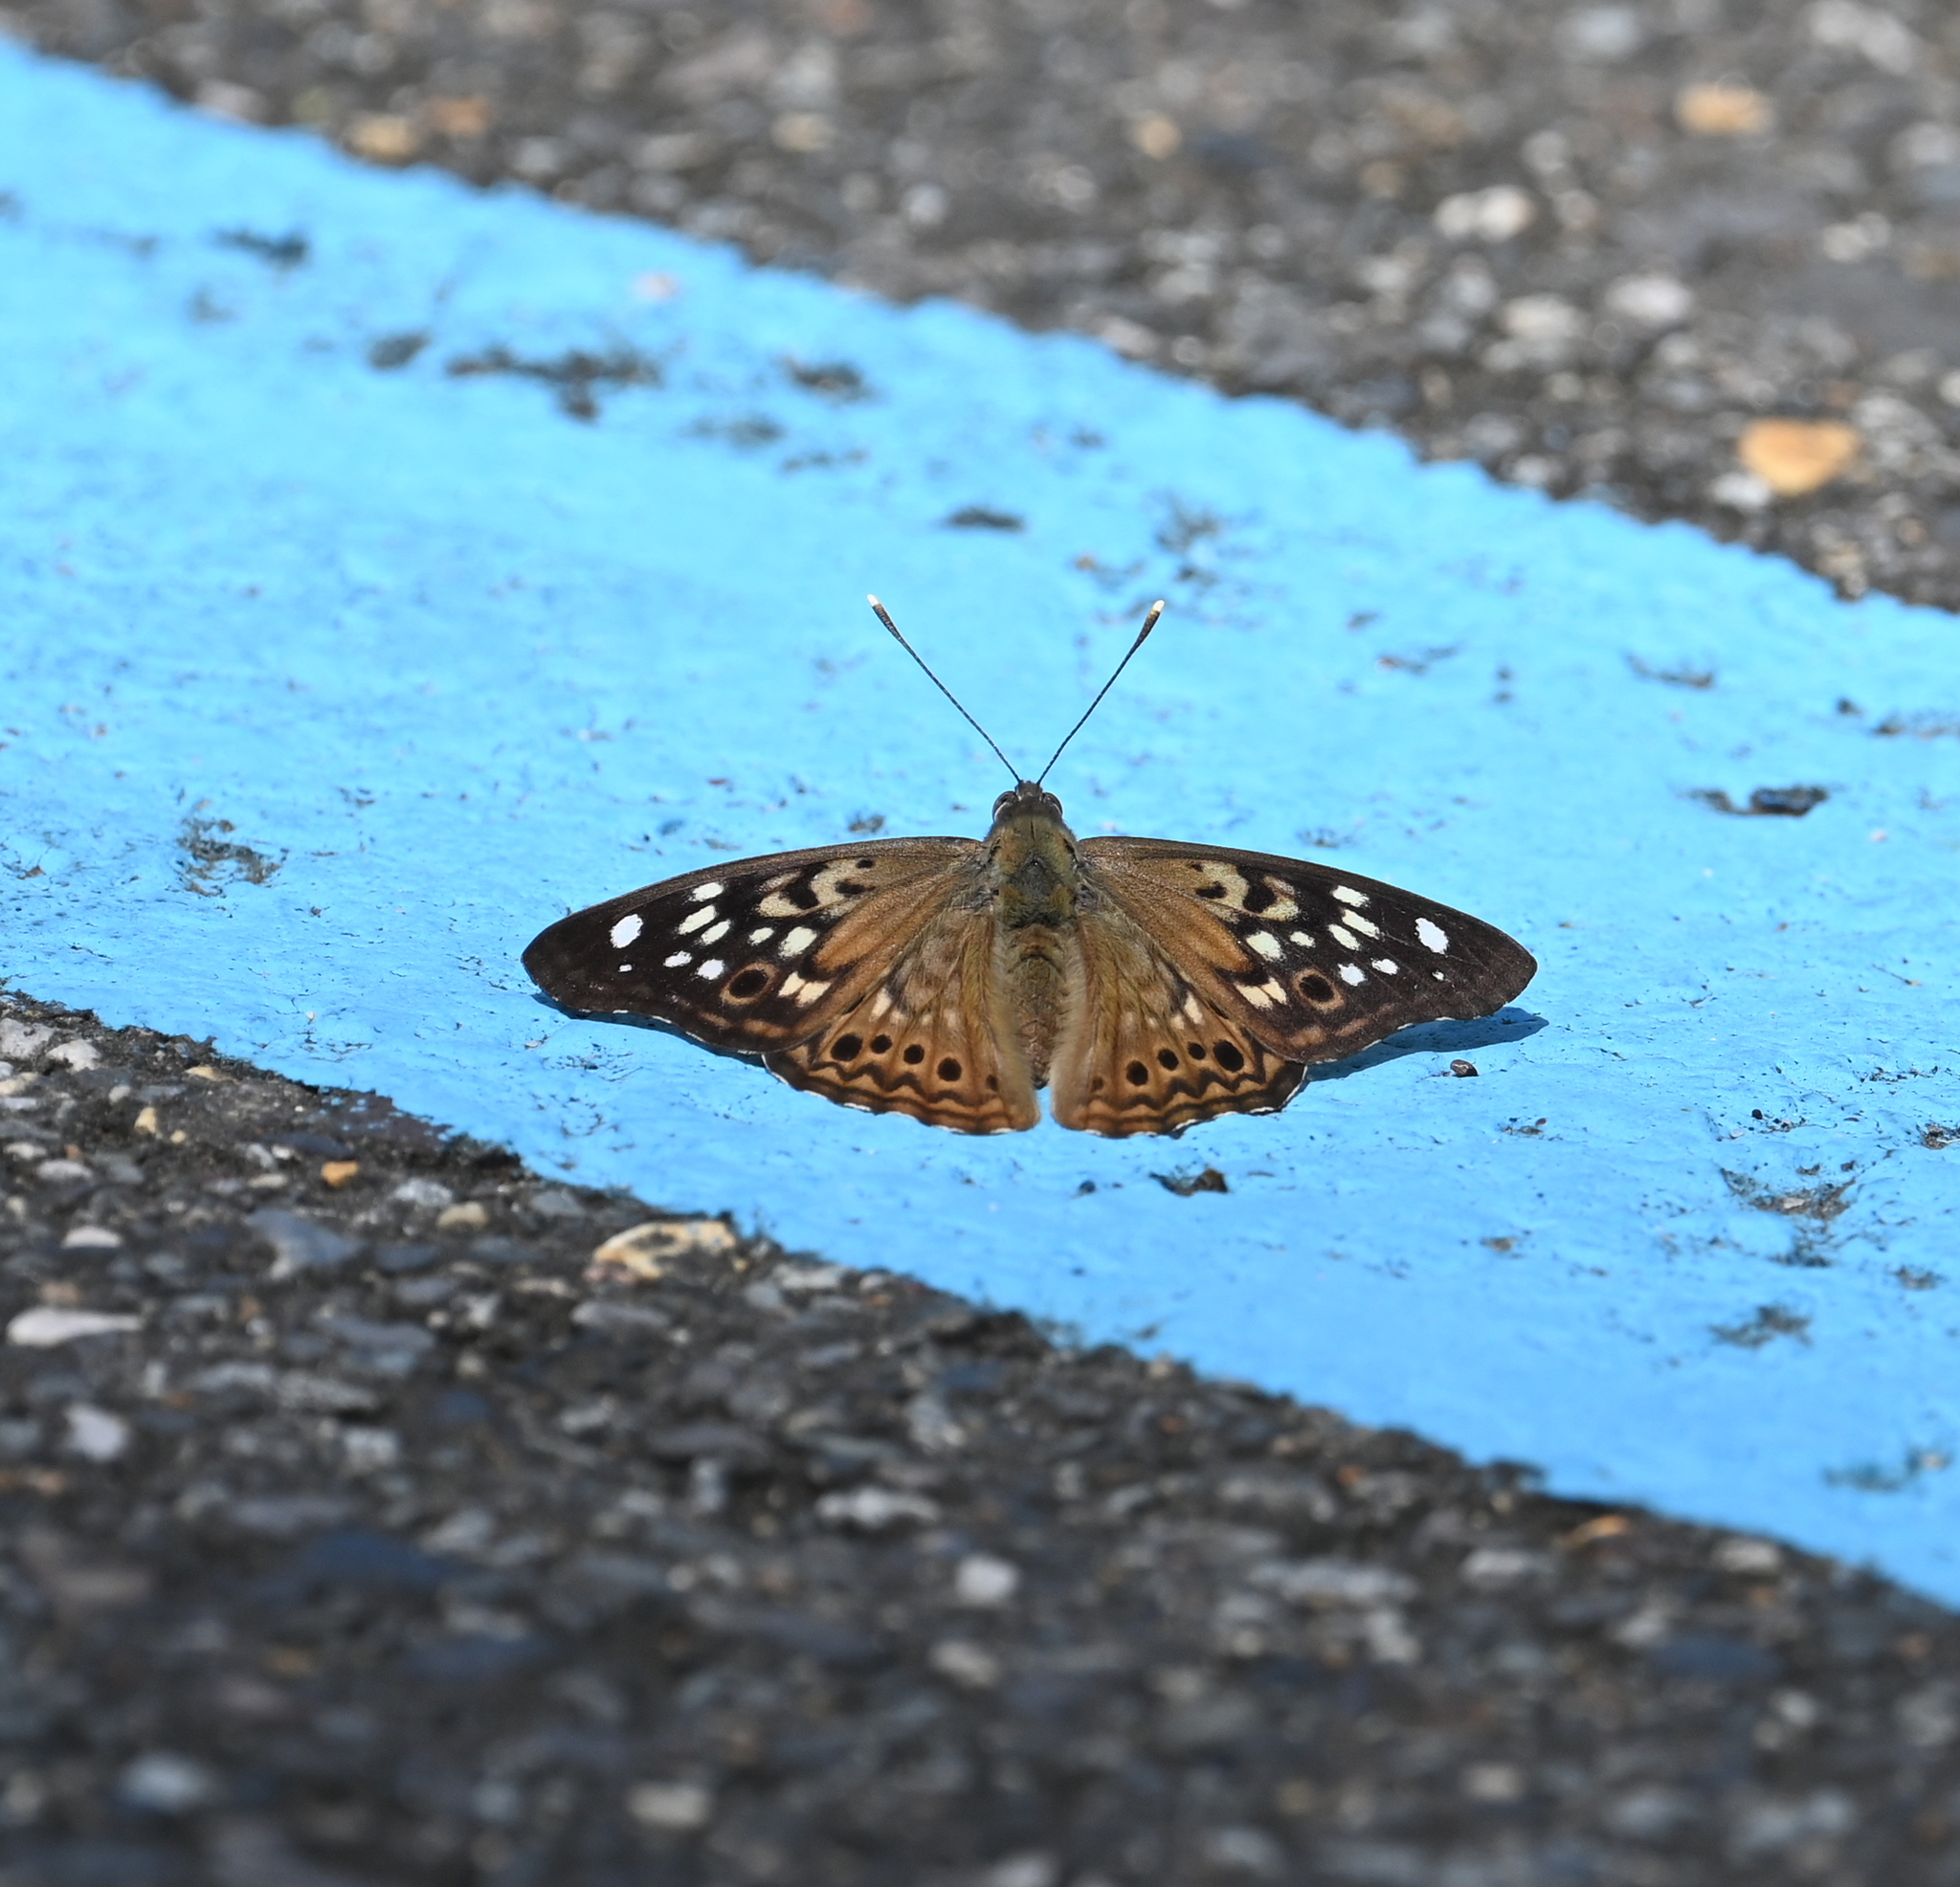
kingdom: Animalia
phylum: Arthropoda
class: Insecta
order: Lepidoptera
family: Nymphalidae
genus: Asterocampa
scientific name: Asterocampa celtis
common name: Hackberry emperor
